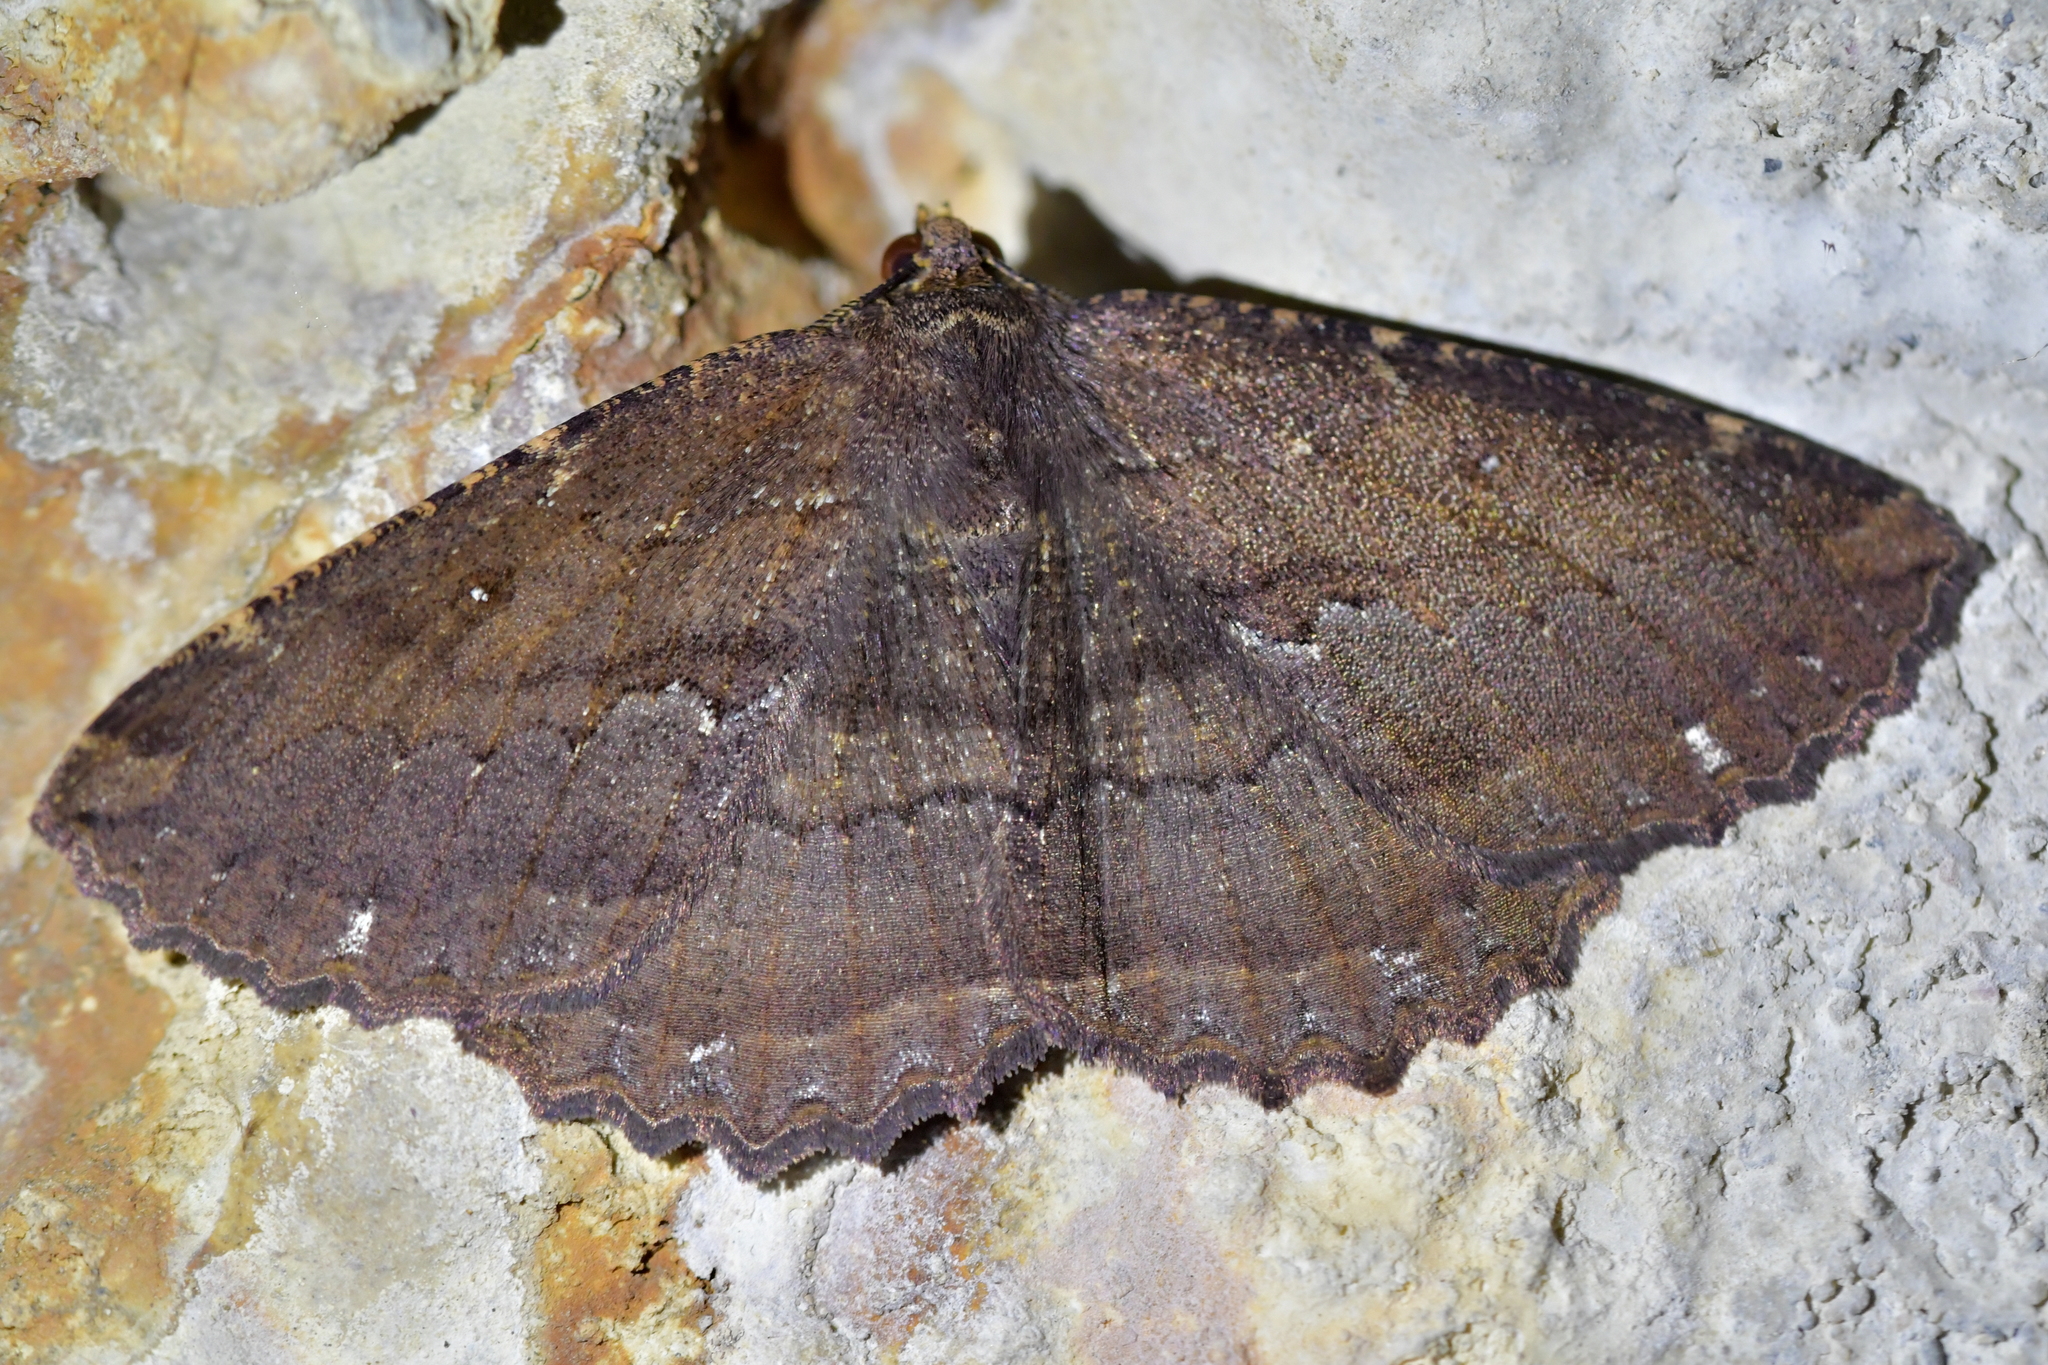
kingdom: Animalia
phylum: Arthropoda
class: Insecta
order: Lepidoptera
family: Geometridae
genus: Gellonia
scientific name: Gellonia dejectaria
